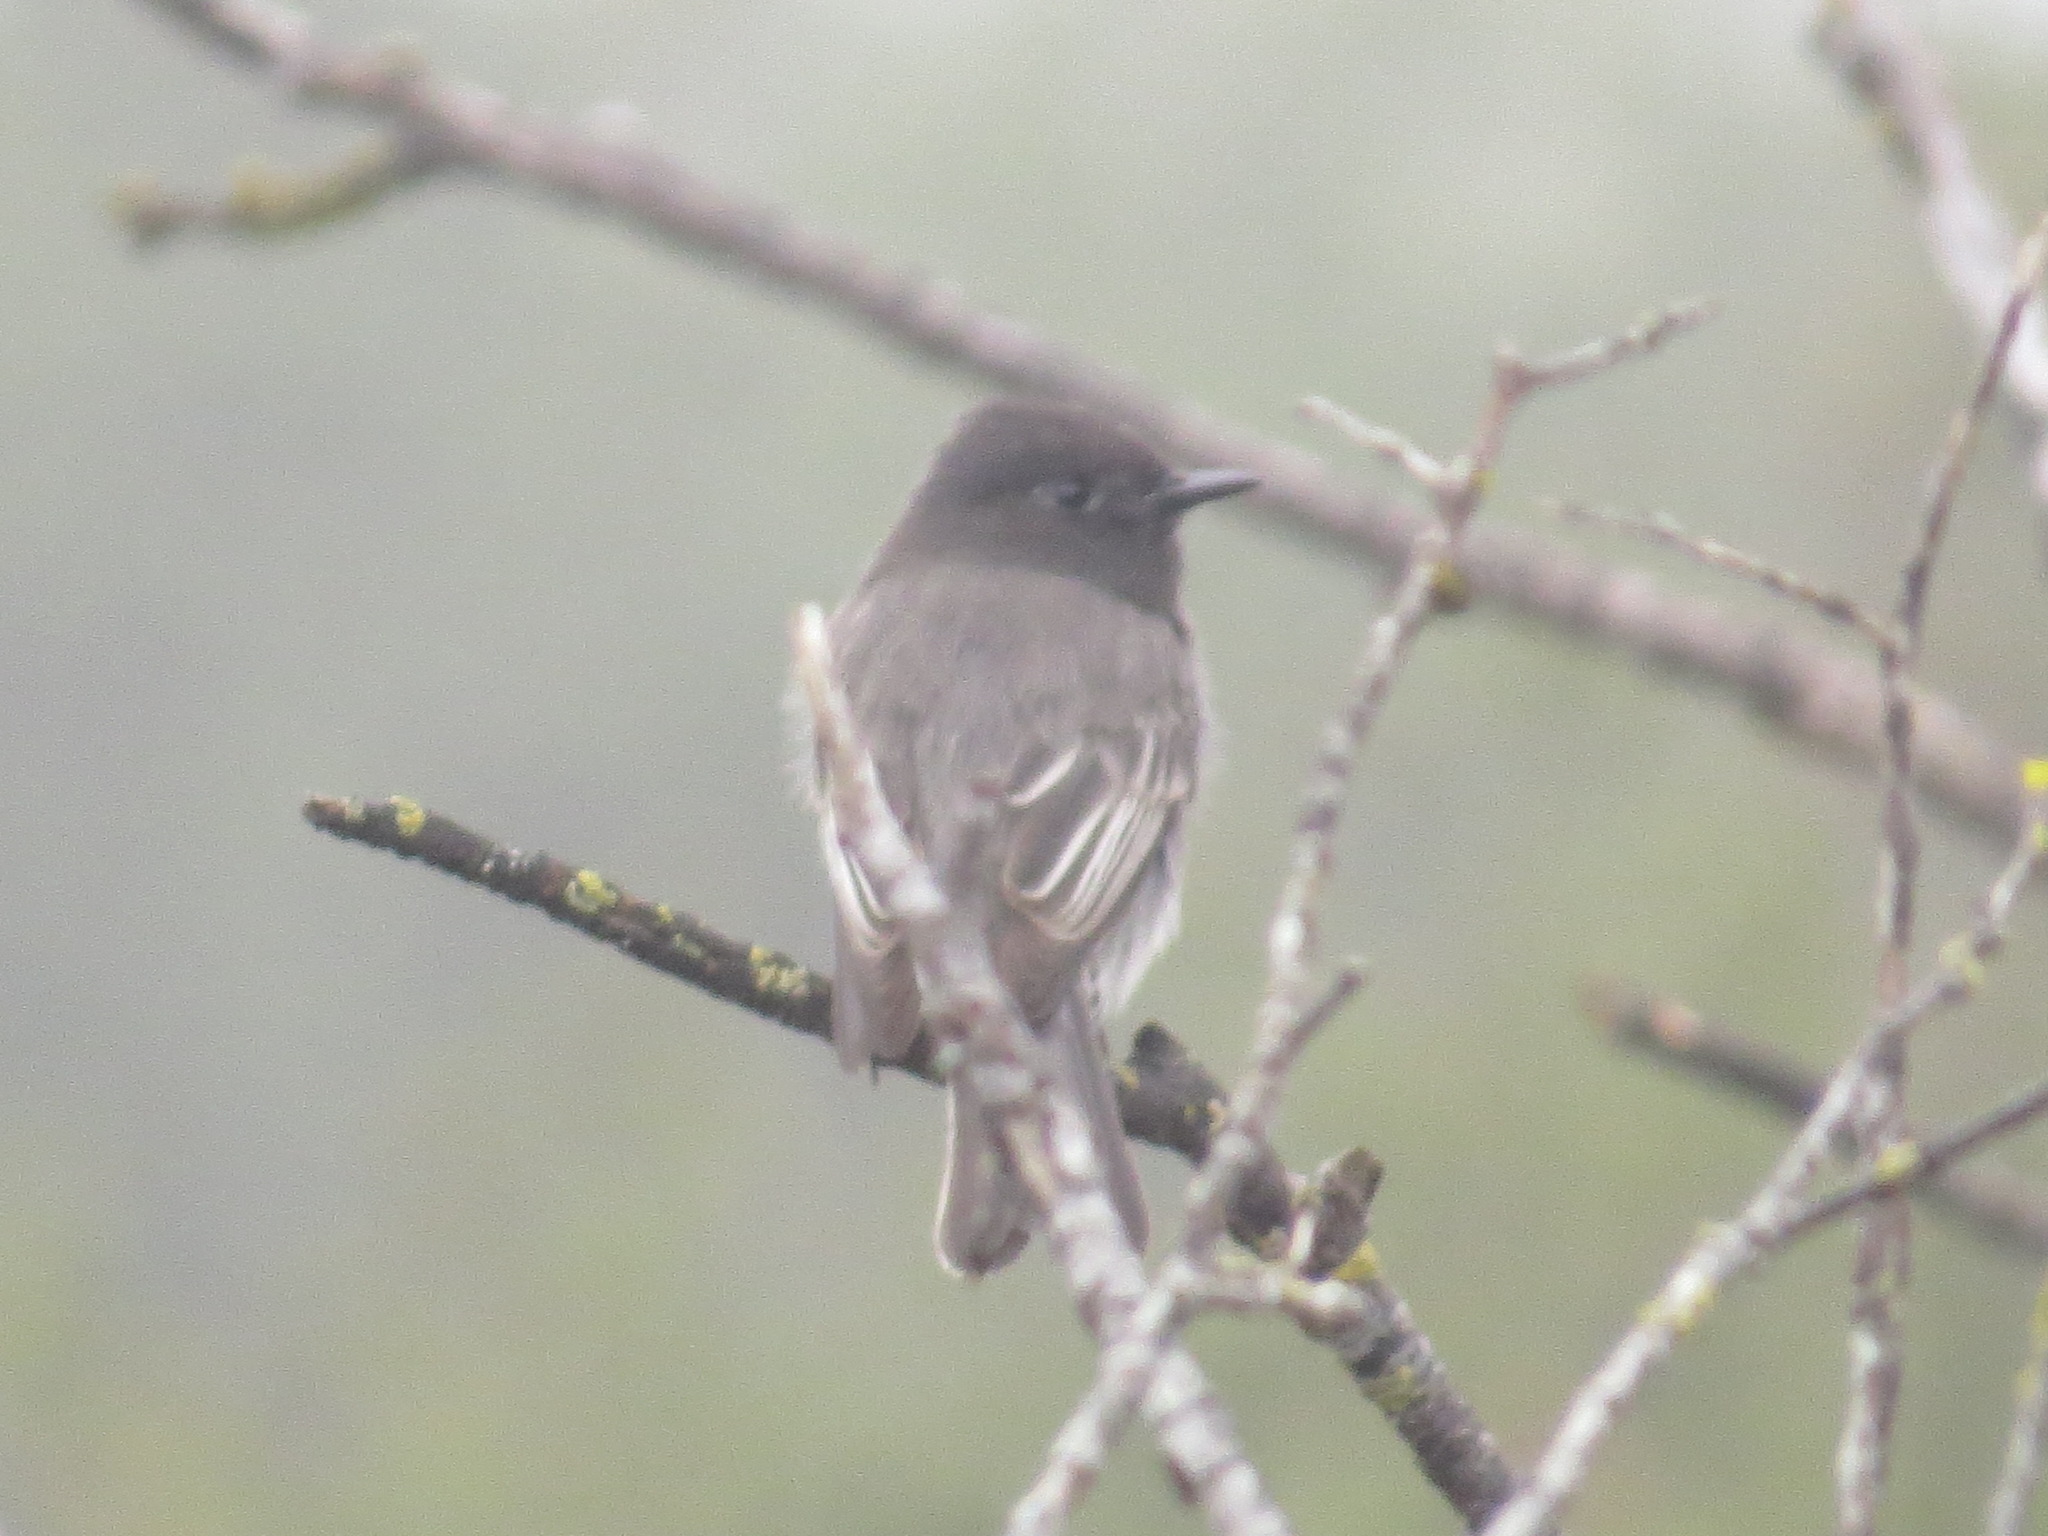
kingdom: Animalia
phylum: Chordata
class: Aves
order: Passeriformes
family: Tyrannidae
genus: Sayornis
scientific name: Sayornis nigricans
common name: Black phoebe
